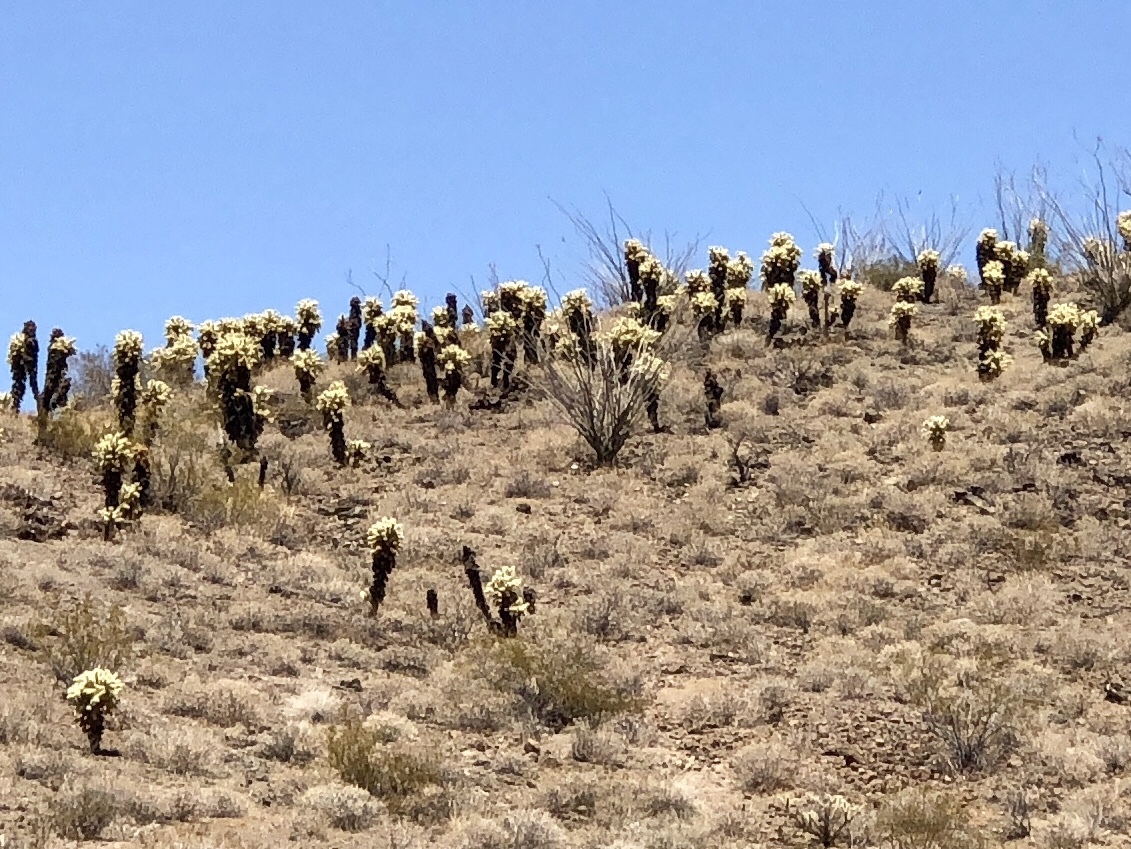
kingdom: Plantae
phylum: Tracheophyta
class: Magnoliopsida
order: Caryophyllales
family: Cactaceae
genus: Cylindropuntia
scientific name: Cylindropuntia fosbergii
